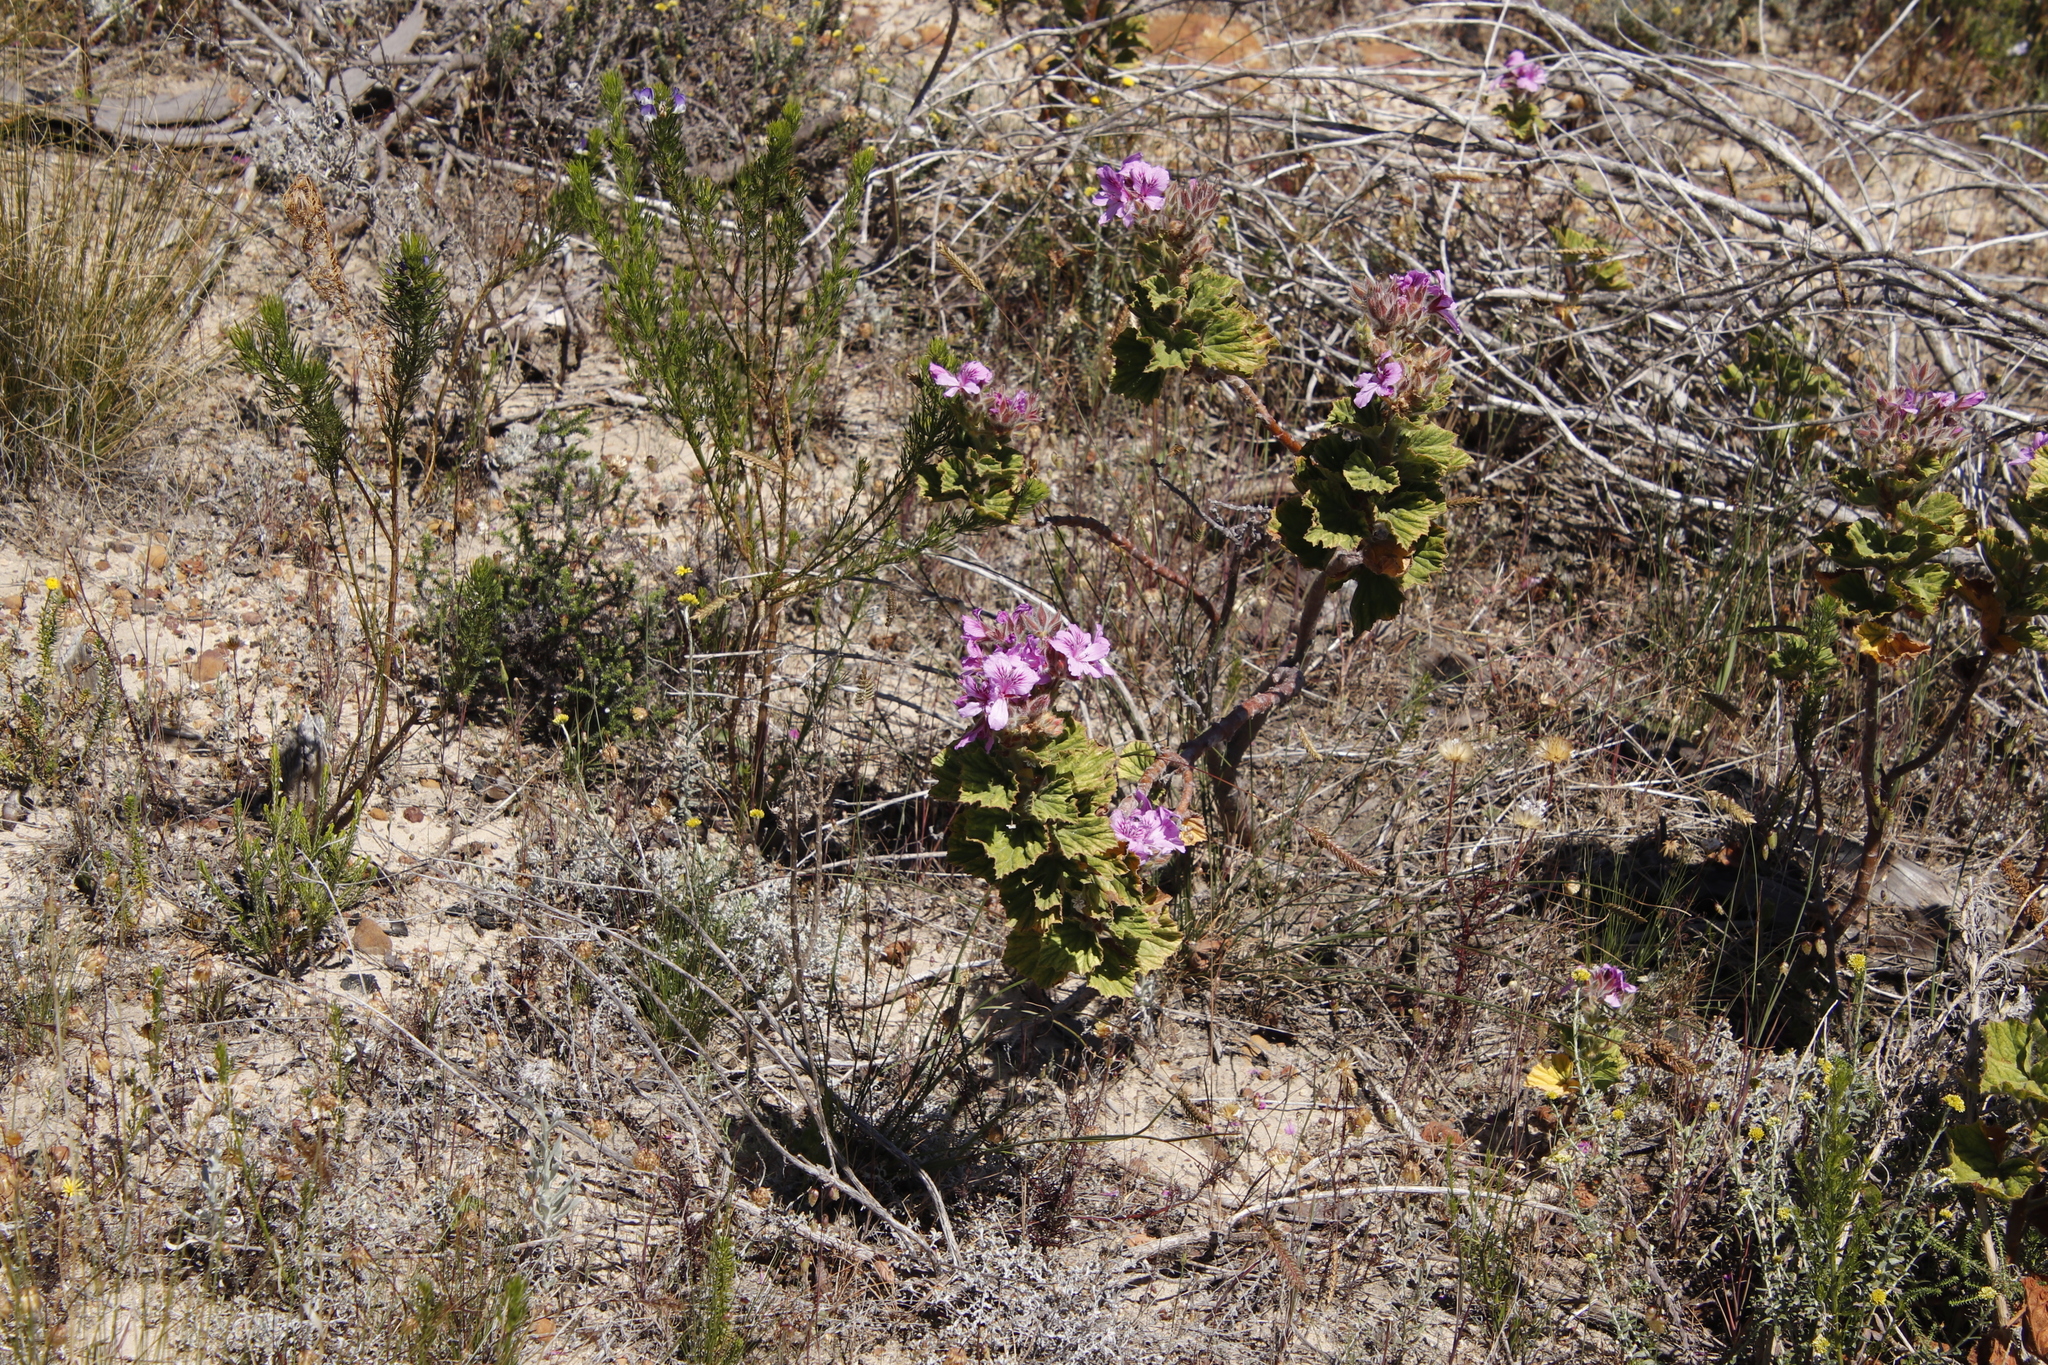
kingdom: Plantae
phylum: Tracheophyta
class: Magnoliopsida
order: Geraniales
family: Geraniaceae
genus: Pelargonium
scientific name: Pelargonium cucullatum
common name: Tree pelargonium
